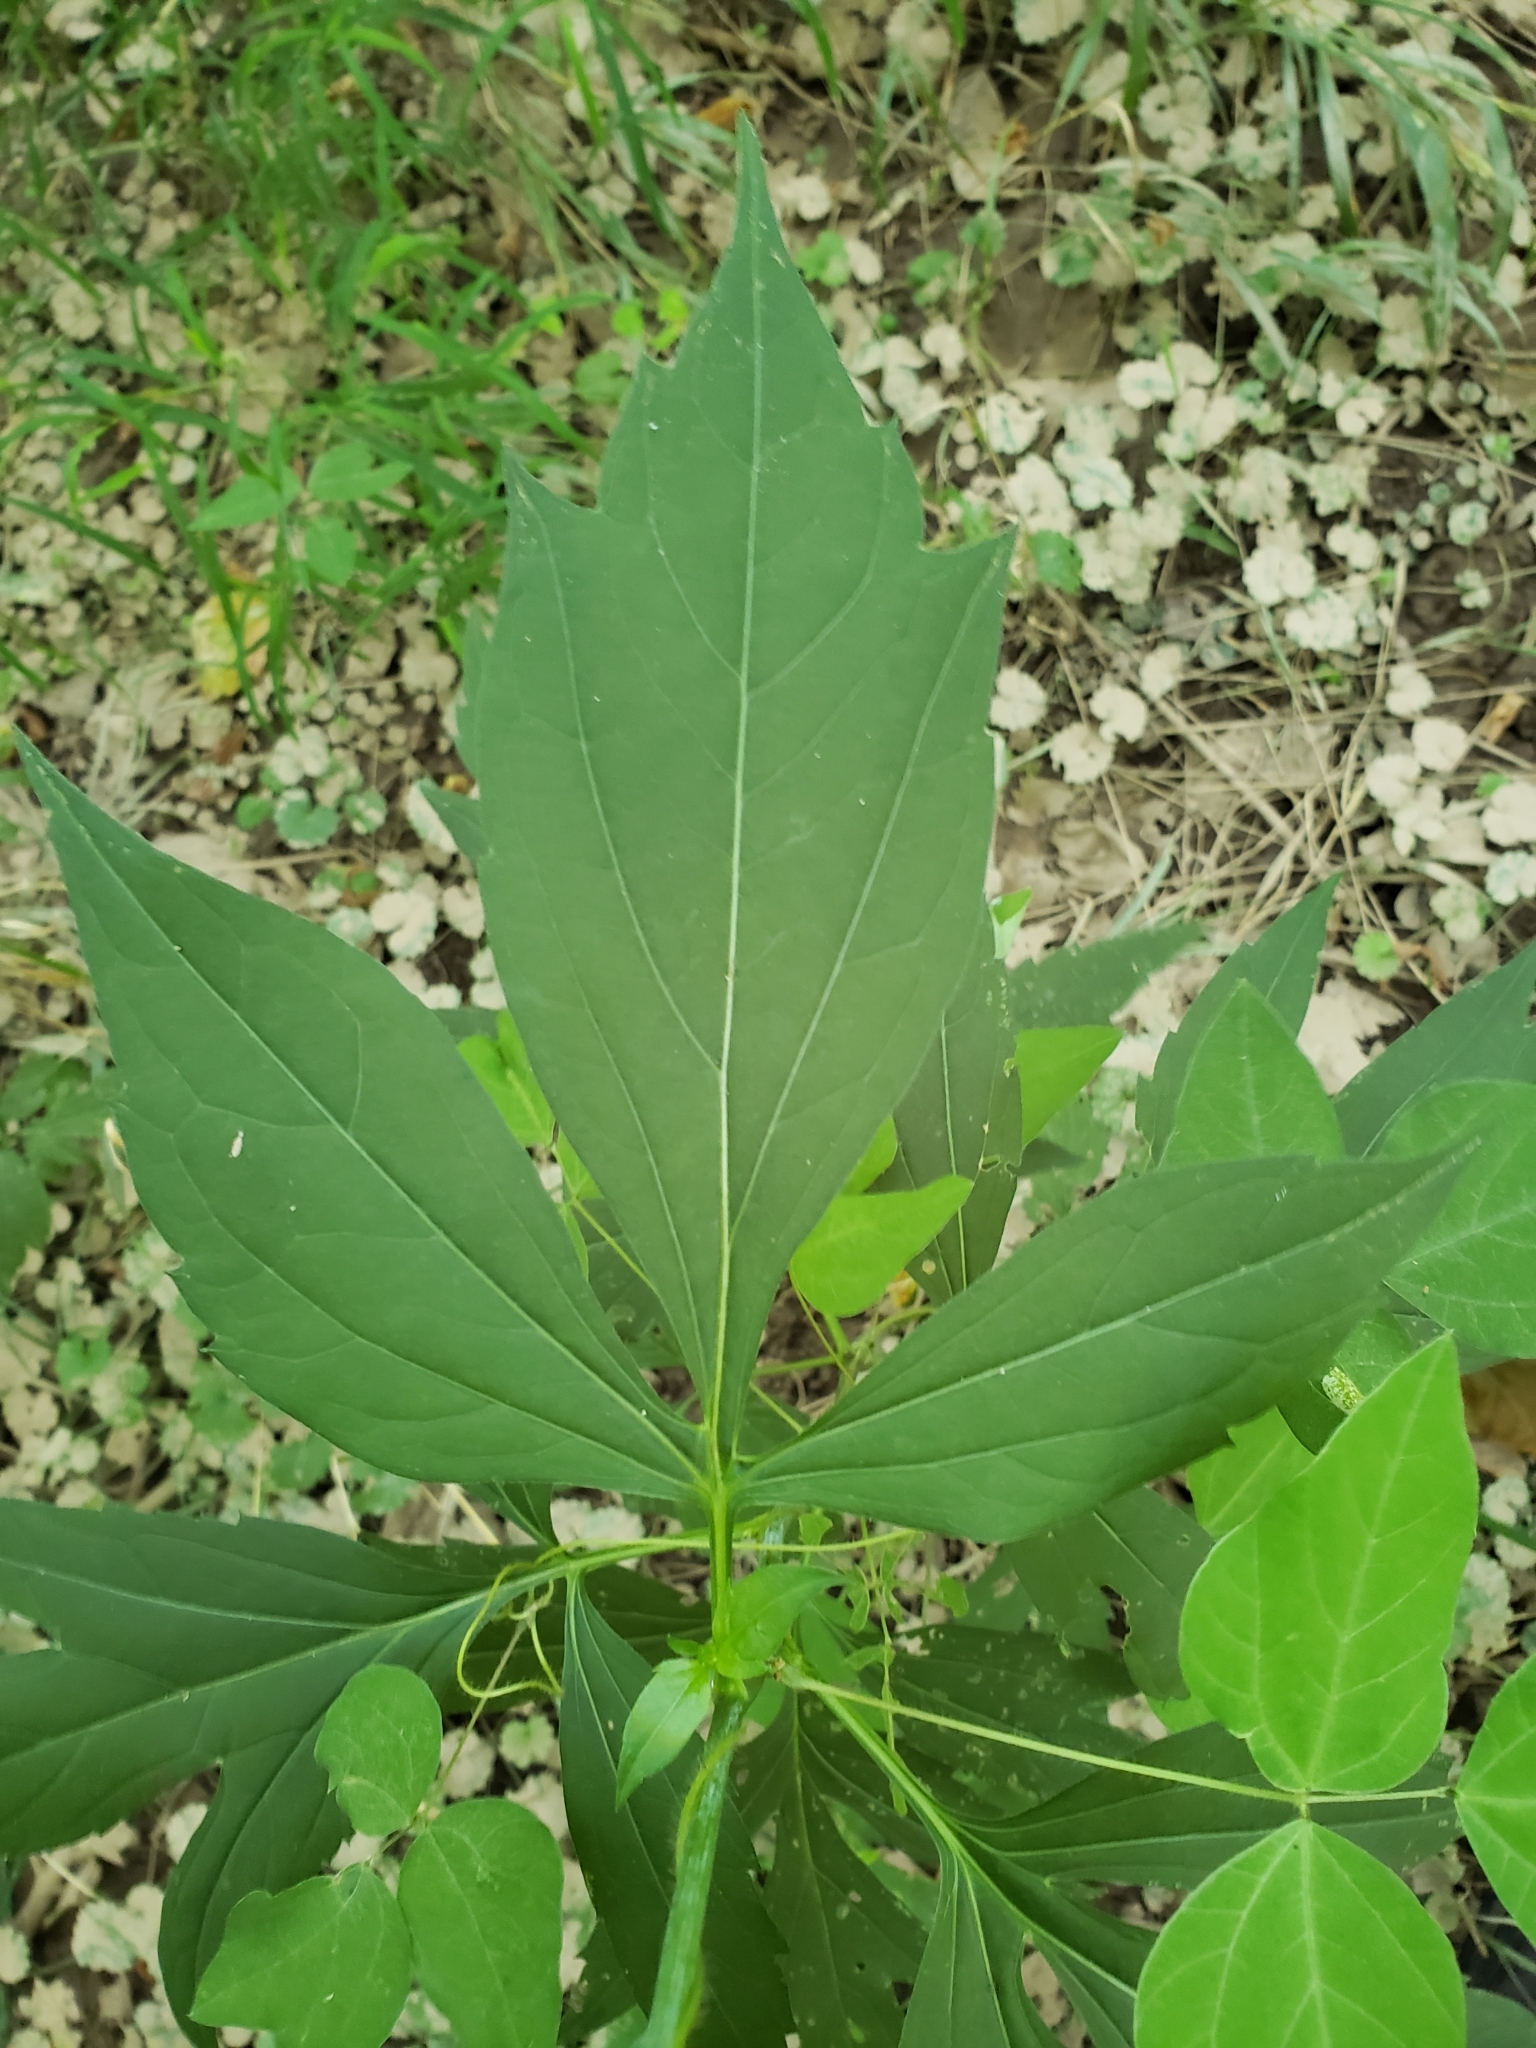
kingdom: Plantae
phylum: Tracheophyta
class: Magnoliopsida
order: Asterales
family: Asteraceae
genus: Rudbeckia
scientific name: Rudbeckia laciniata
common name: Coneflower
